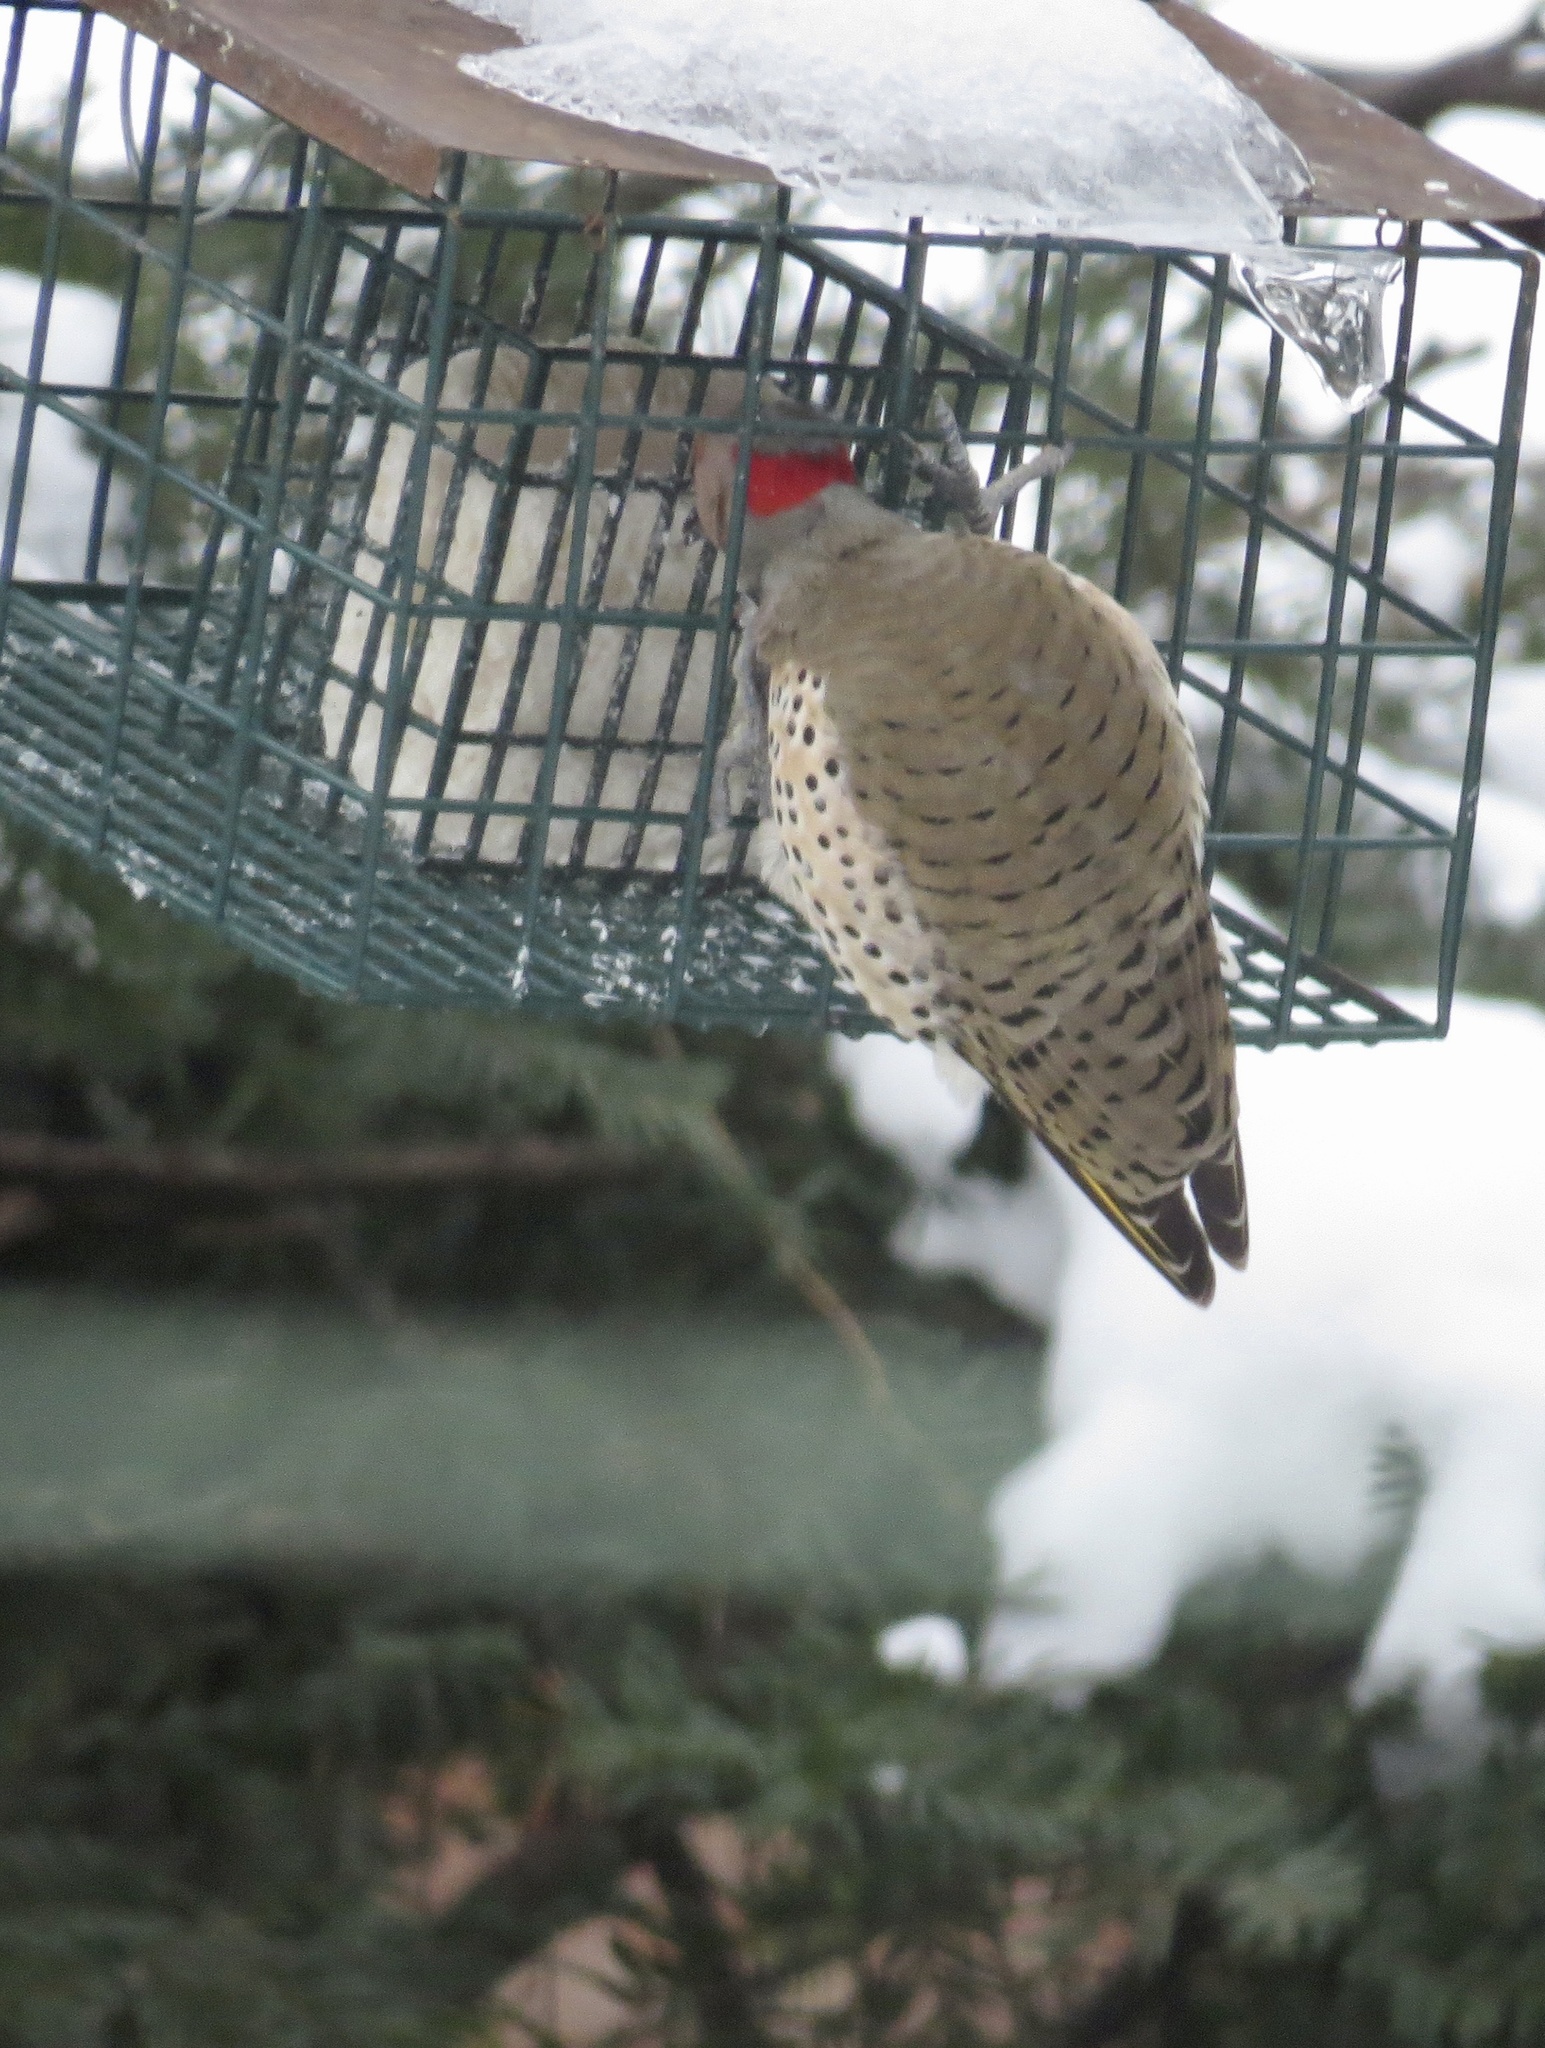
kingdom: Animalia
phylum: Chordata
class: Aves
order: Piciformes
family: Picidae
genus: Colaptes
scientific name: Colaptes auratus
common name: Northern flicker
